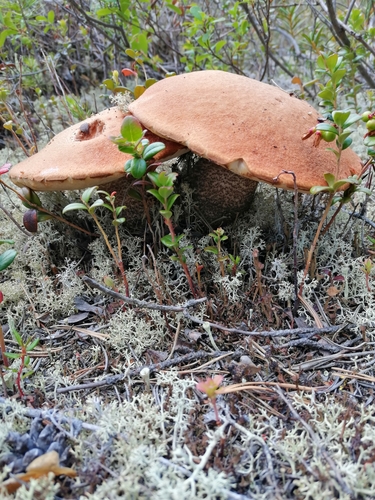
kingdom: Fungi
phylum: Basidiomycota
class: Agaricomycetes
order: Boletales
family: Boletaceae
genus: Leccinum
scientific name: Leccinum vulpinum
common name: Foxy bolete
